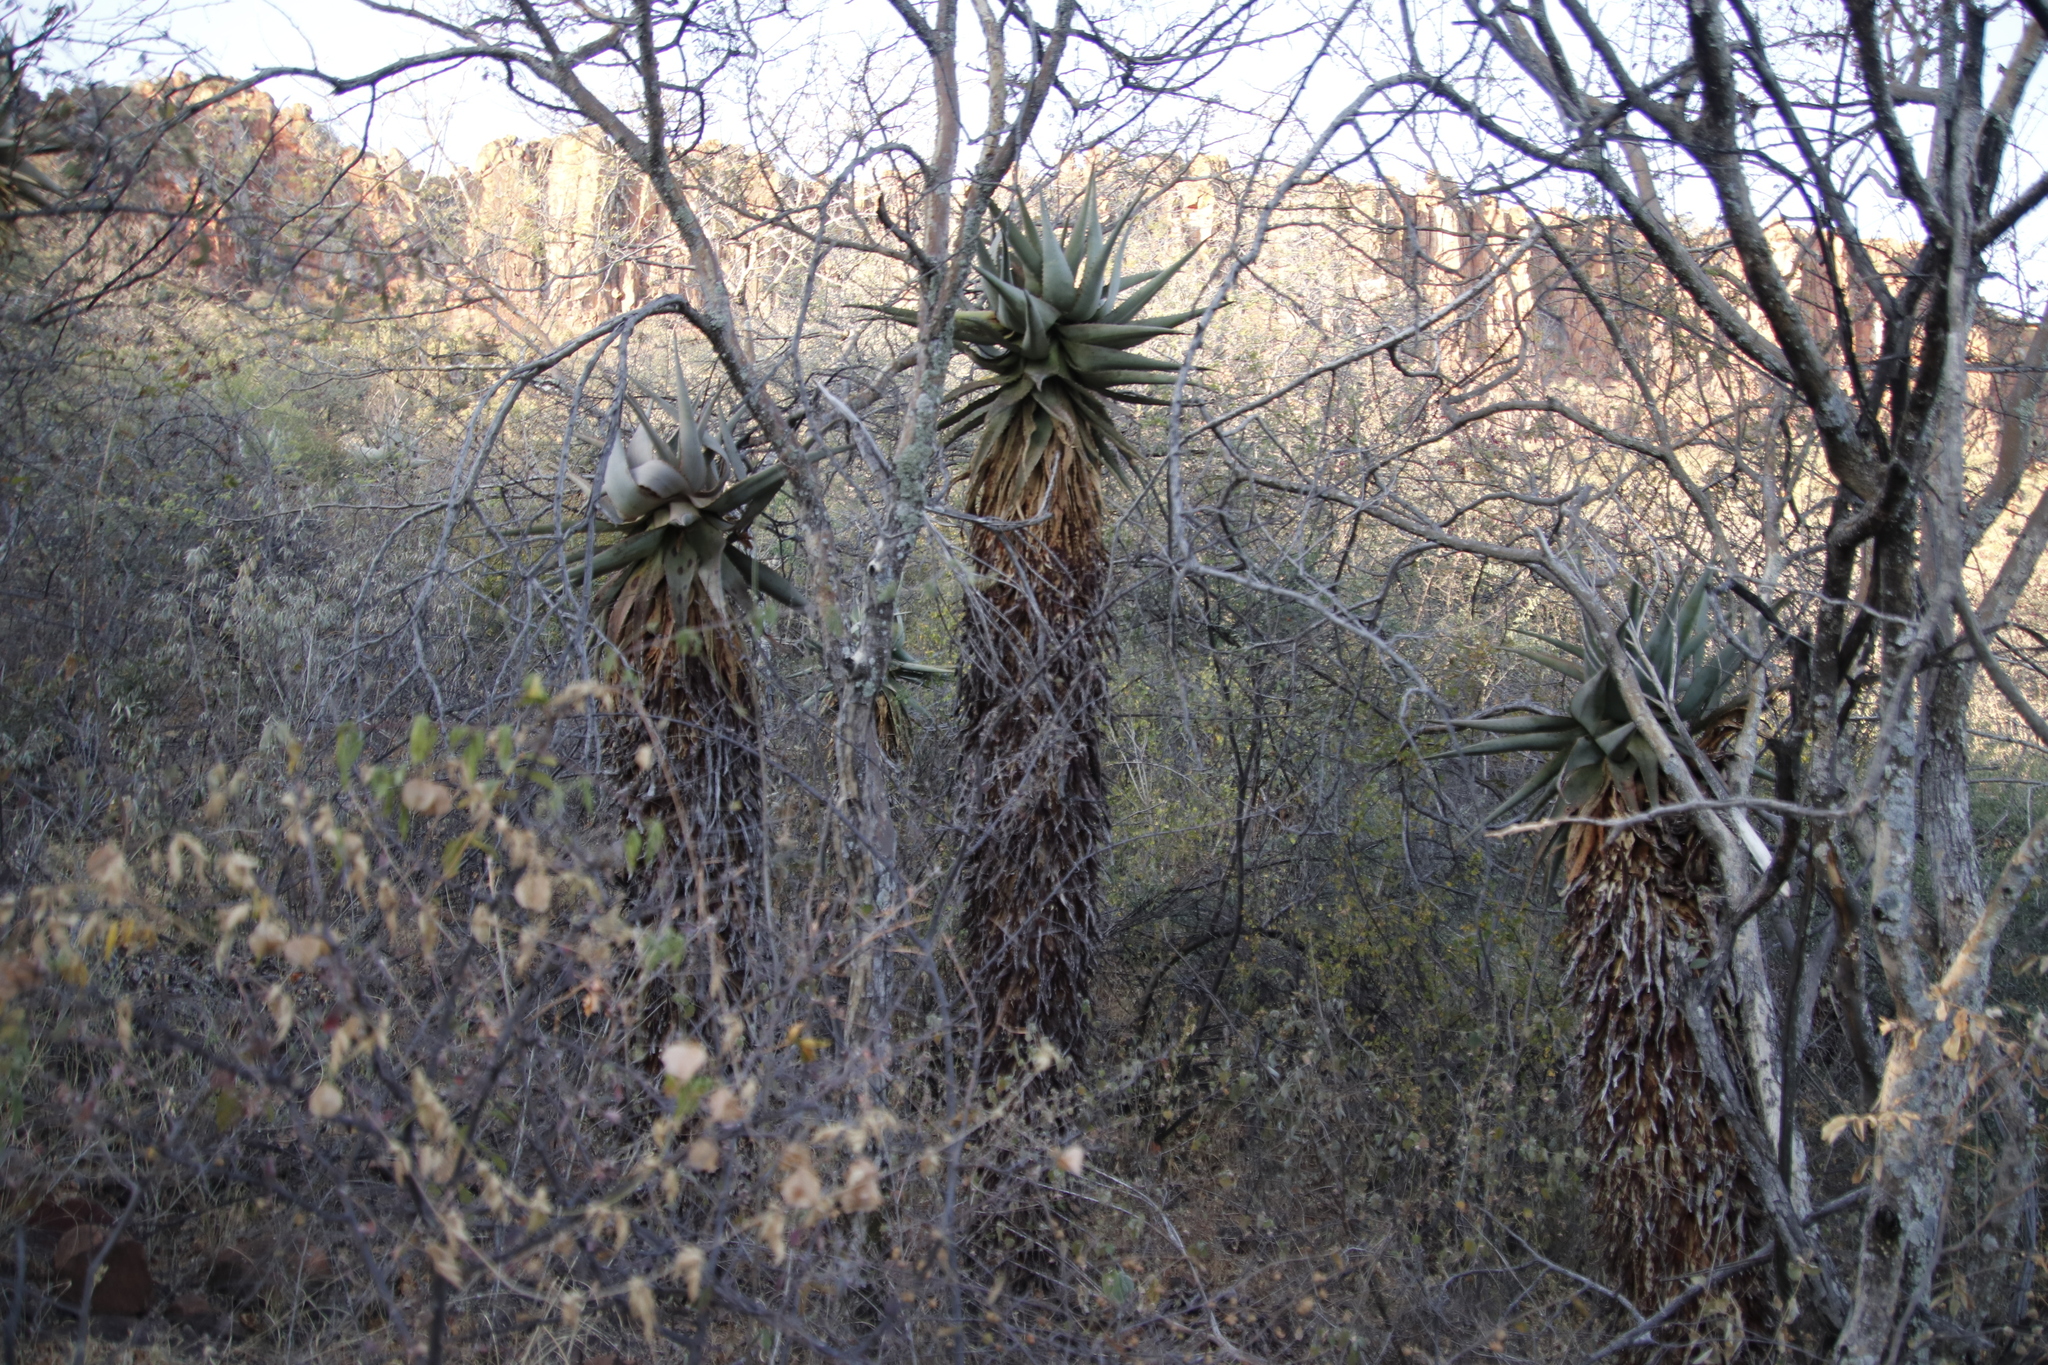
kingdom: Plantae
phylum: Tracheophyta
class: Liliopsida
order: Asparagales
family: Asphodelaceae
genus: Aloe
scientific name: Aloe littoralis
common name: Luanda tree aloe
